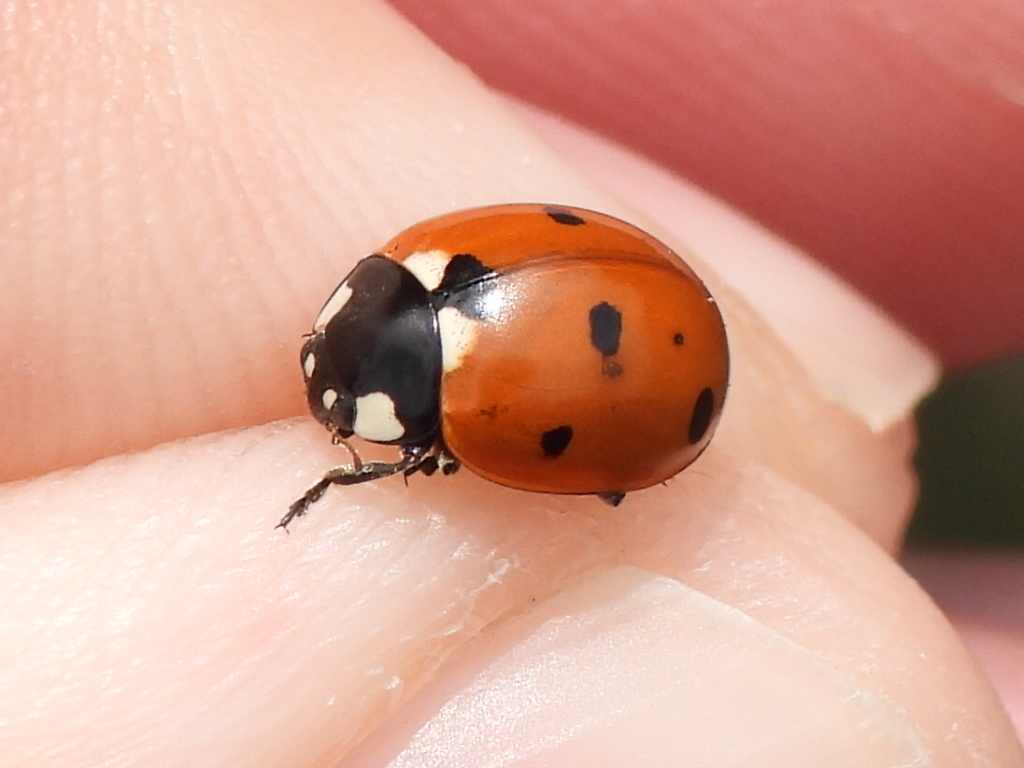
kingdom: Animalia
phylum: Arthropoda
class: Insecta
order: Coleoptera
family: Coccinellidae
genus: Coccinella
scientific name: Coccinella septempunctata
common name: Sevenspotted lady beetle
